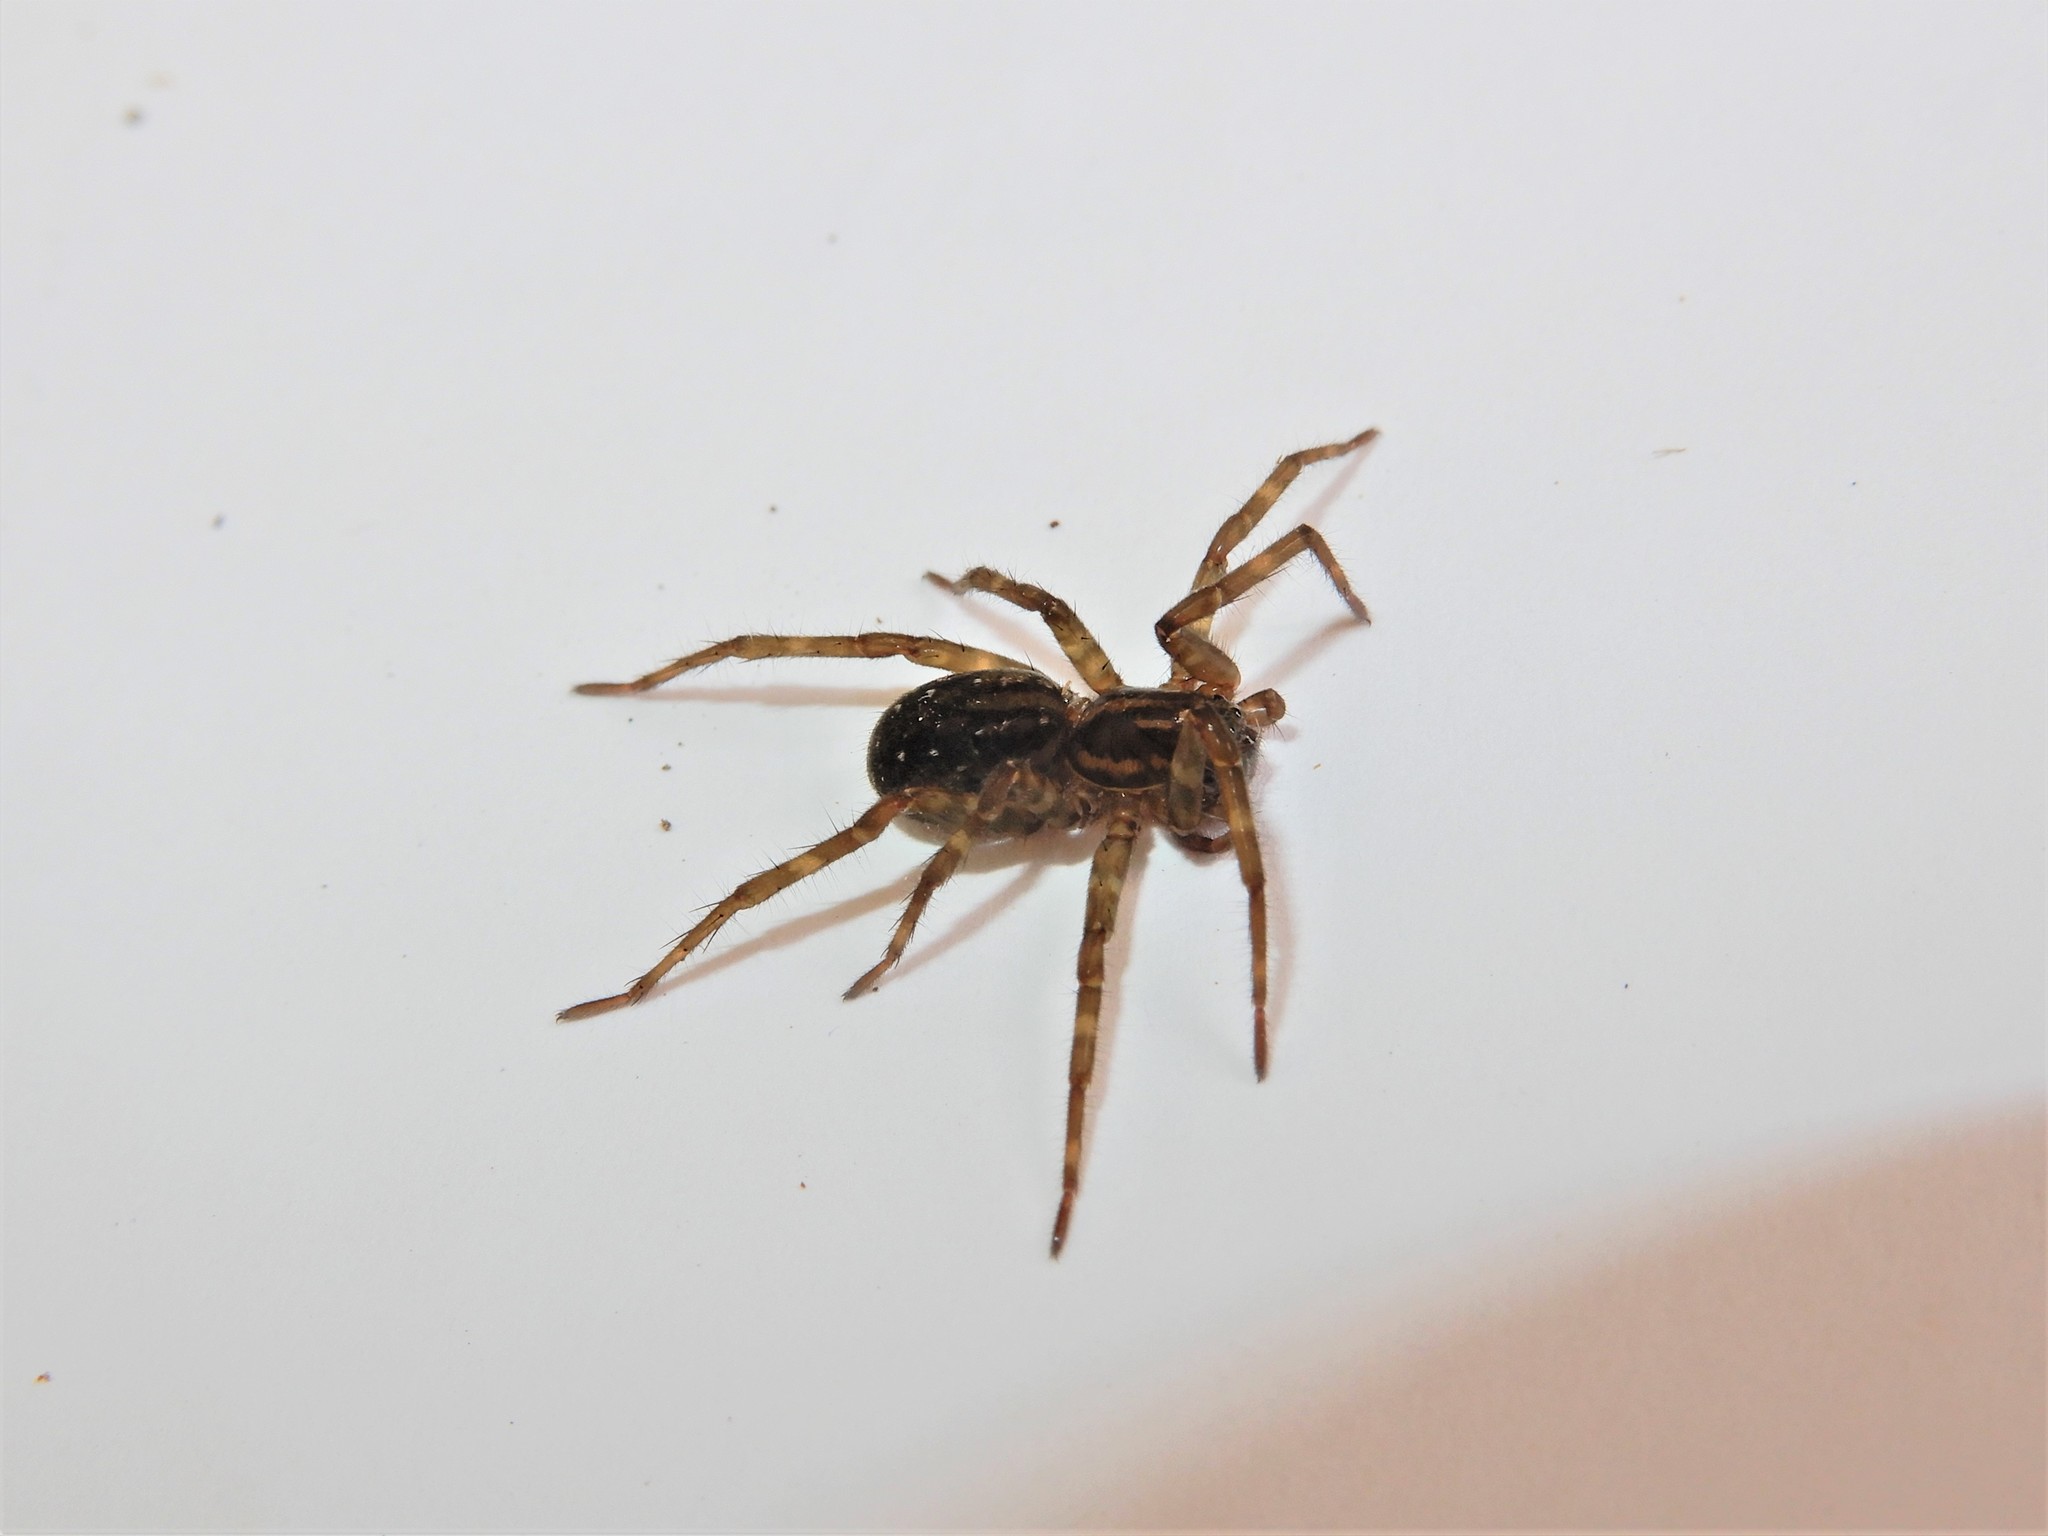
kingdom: Animalia
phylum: Arthropoda
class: Arachnida
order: Araneae
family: Lycosidae
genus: Allotrochosina
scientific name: Allotrochosina schauinslandi
